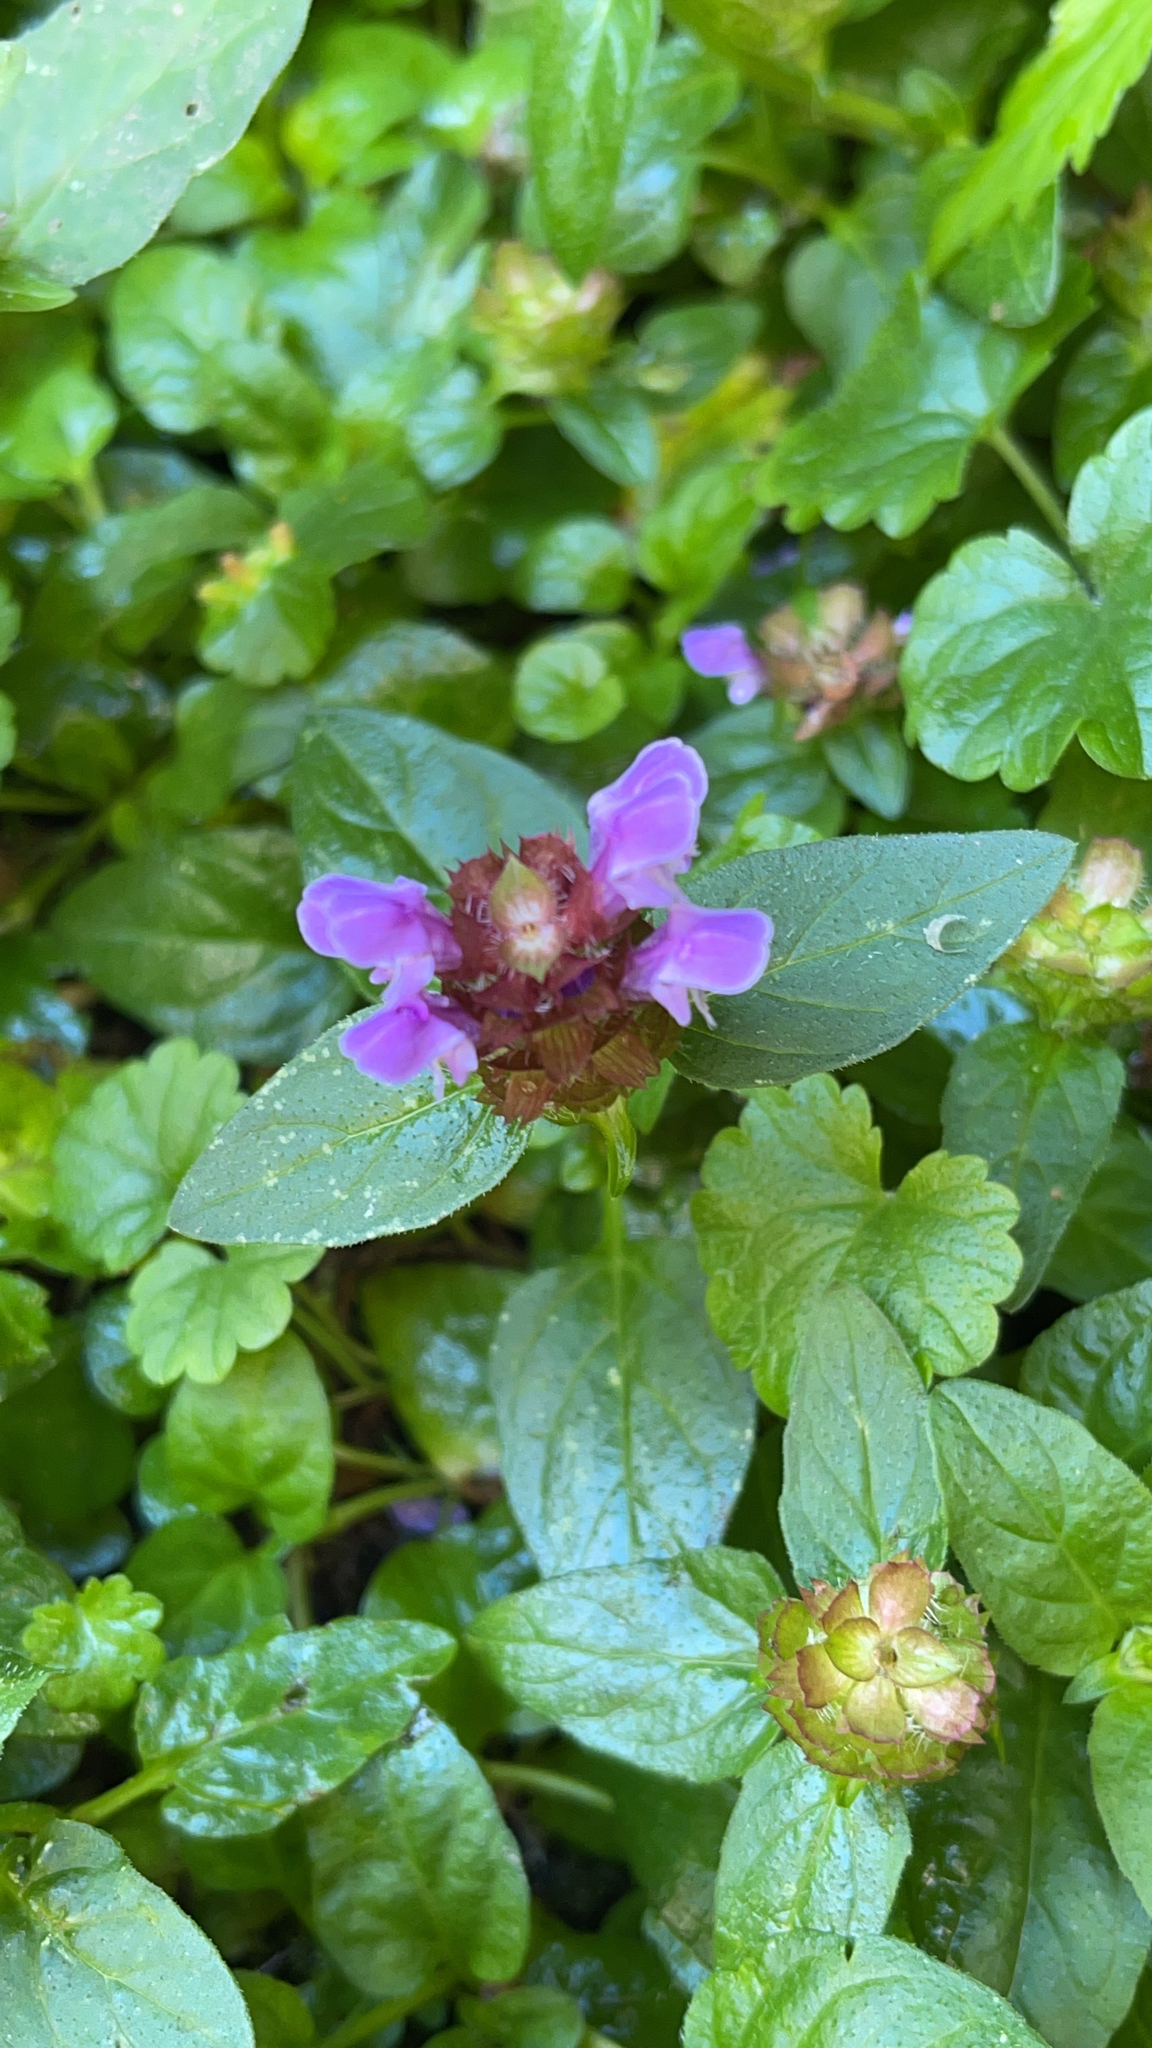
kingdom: Plantae
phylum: Tracheophyta
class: Magnoliopsida
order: Lamiales
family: Lamiaceae
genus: Prunella
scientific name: Prunella vulgaris
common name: Heal-all
